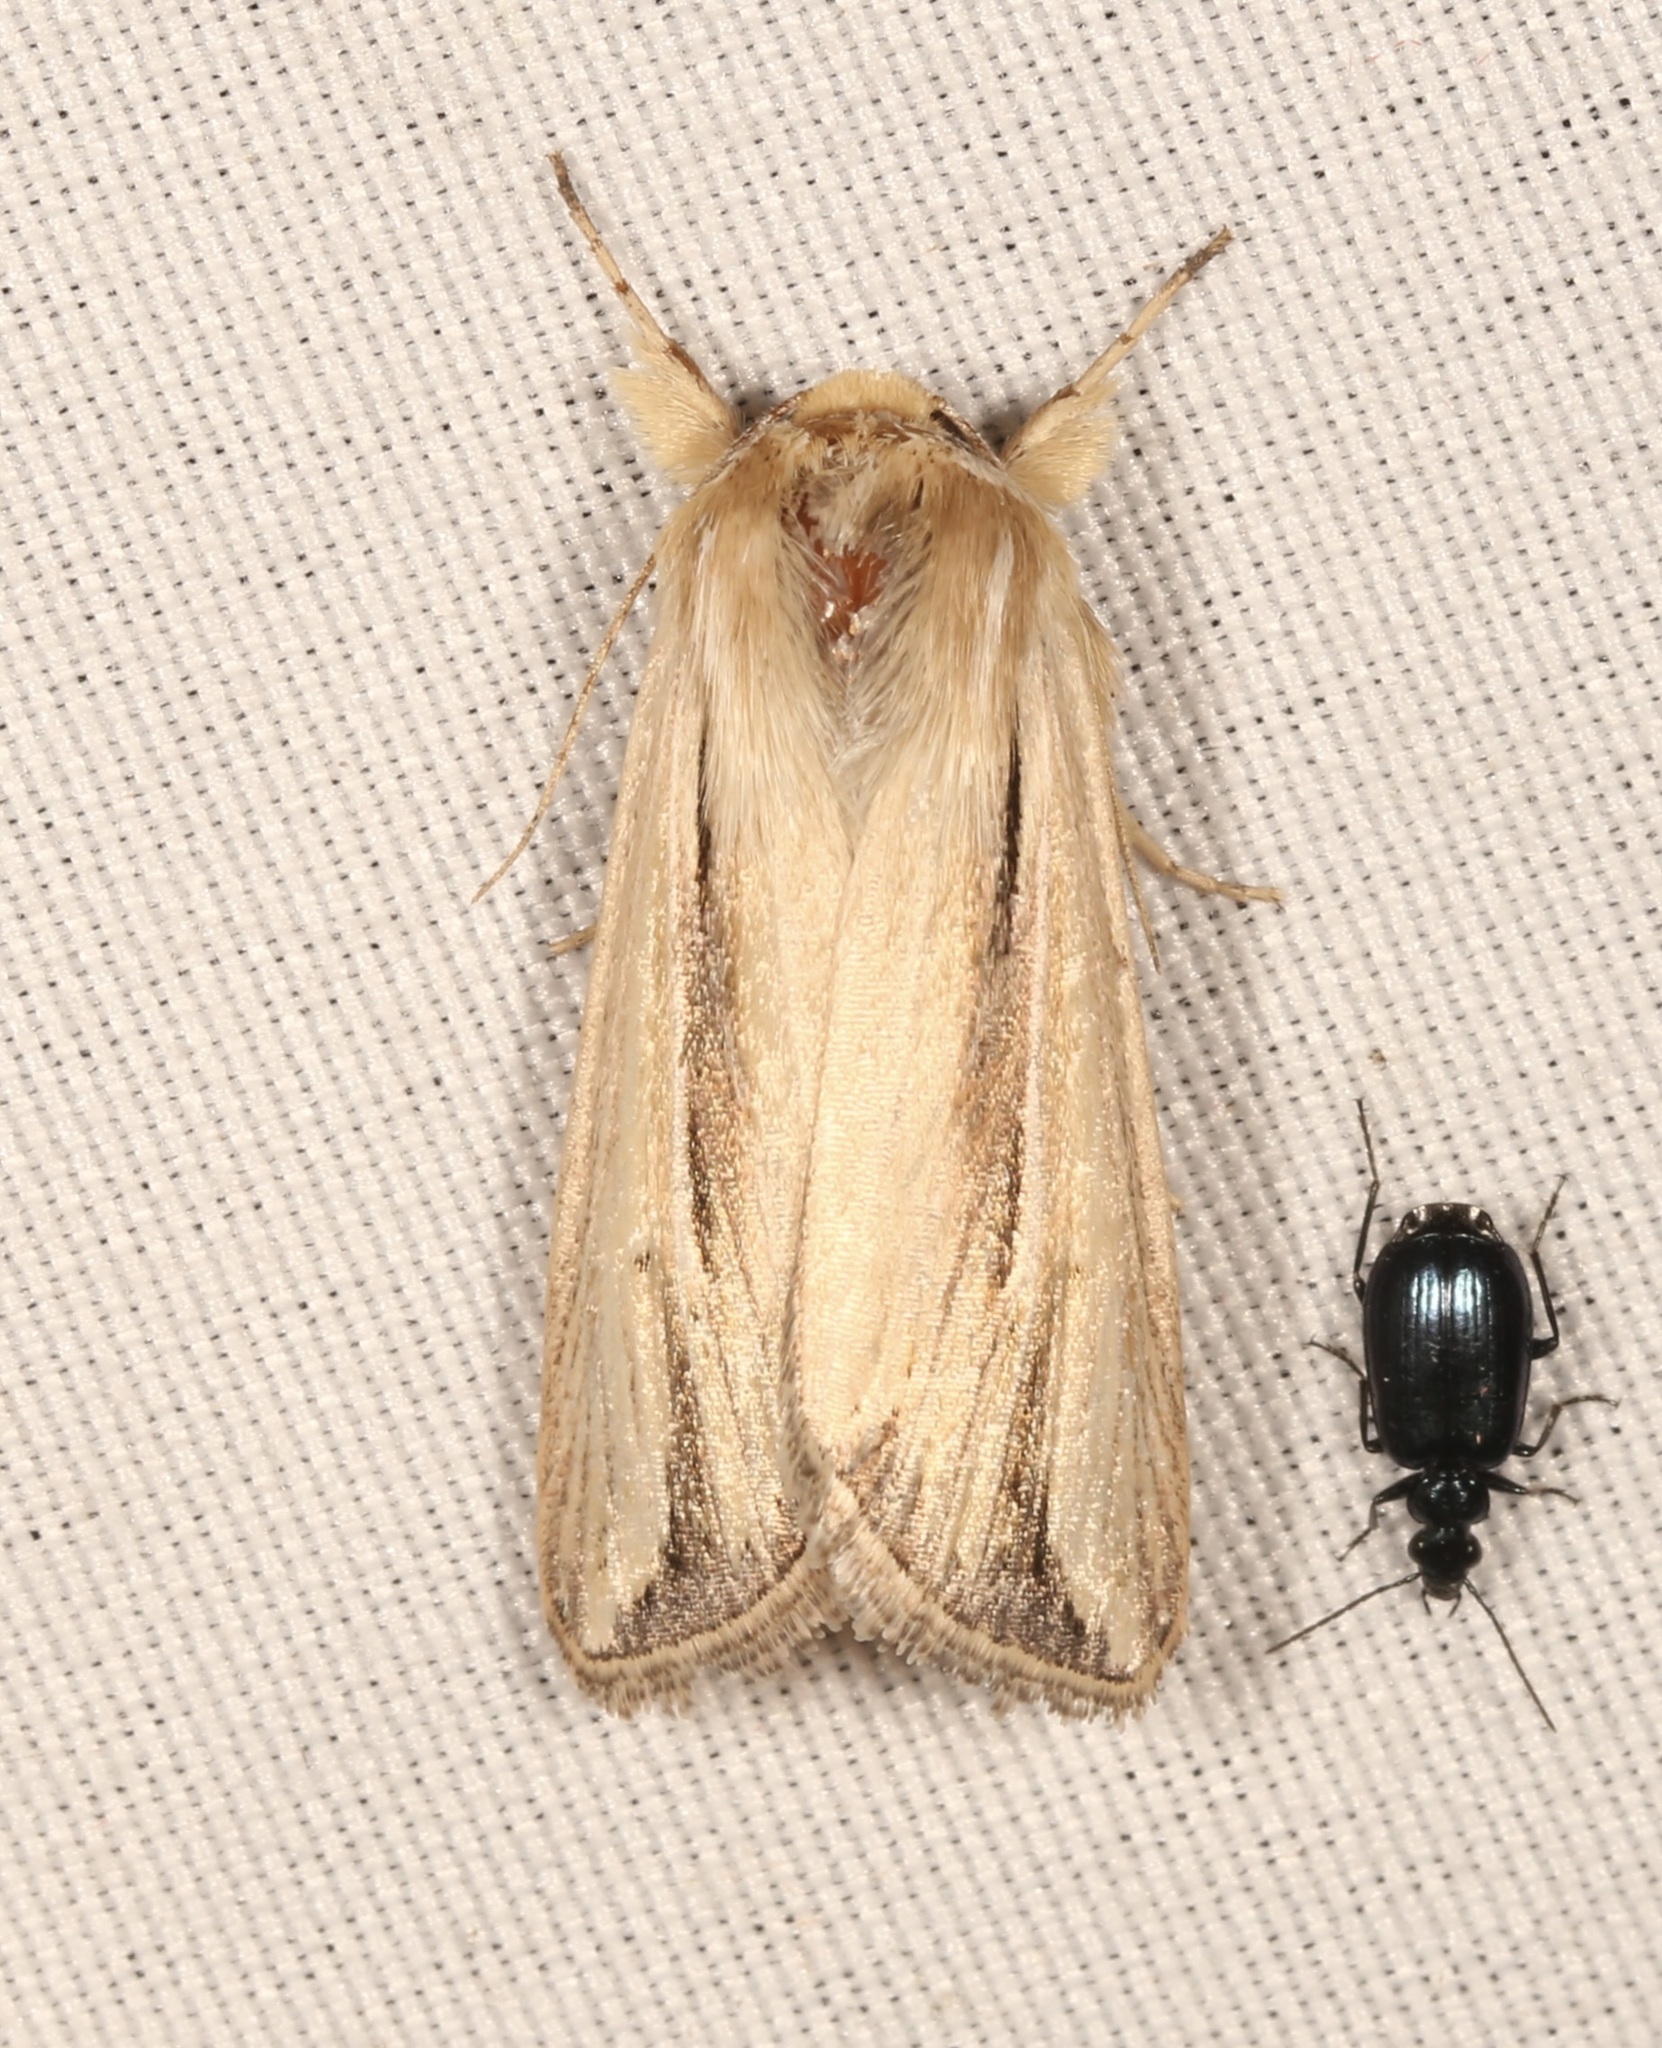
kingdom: Animalia
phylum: Arthropoda
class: Insecta
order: Lepidoptera
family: Noctuidae
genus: Dargida
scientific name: Dargida diffusa
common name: Wheat head armyworm
